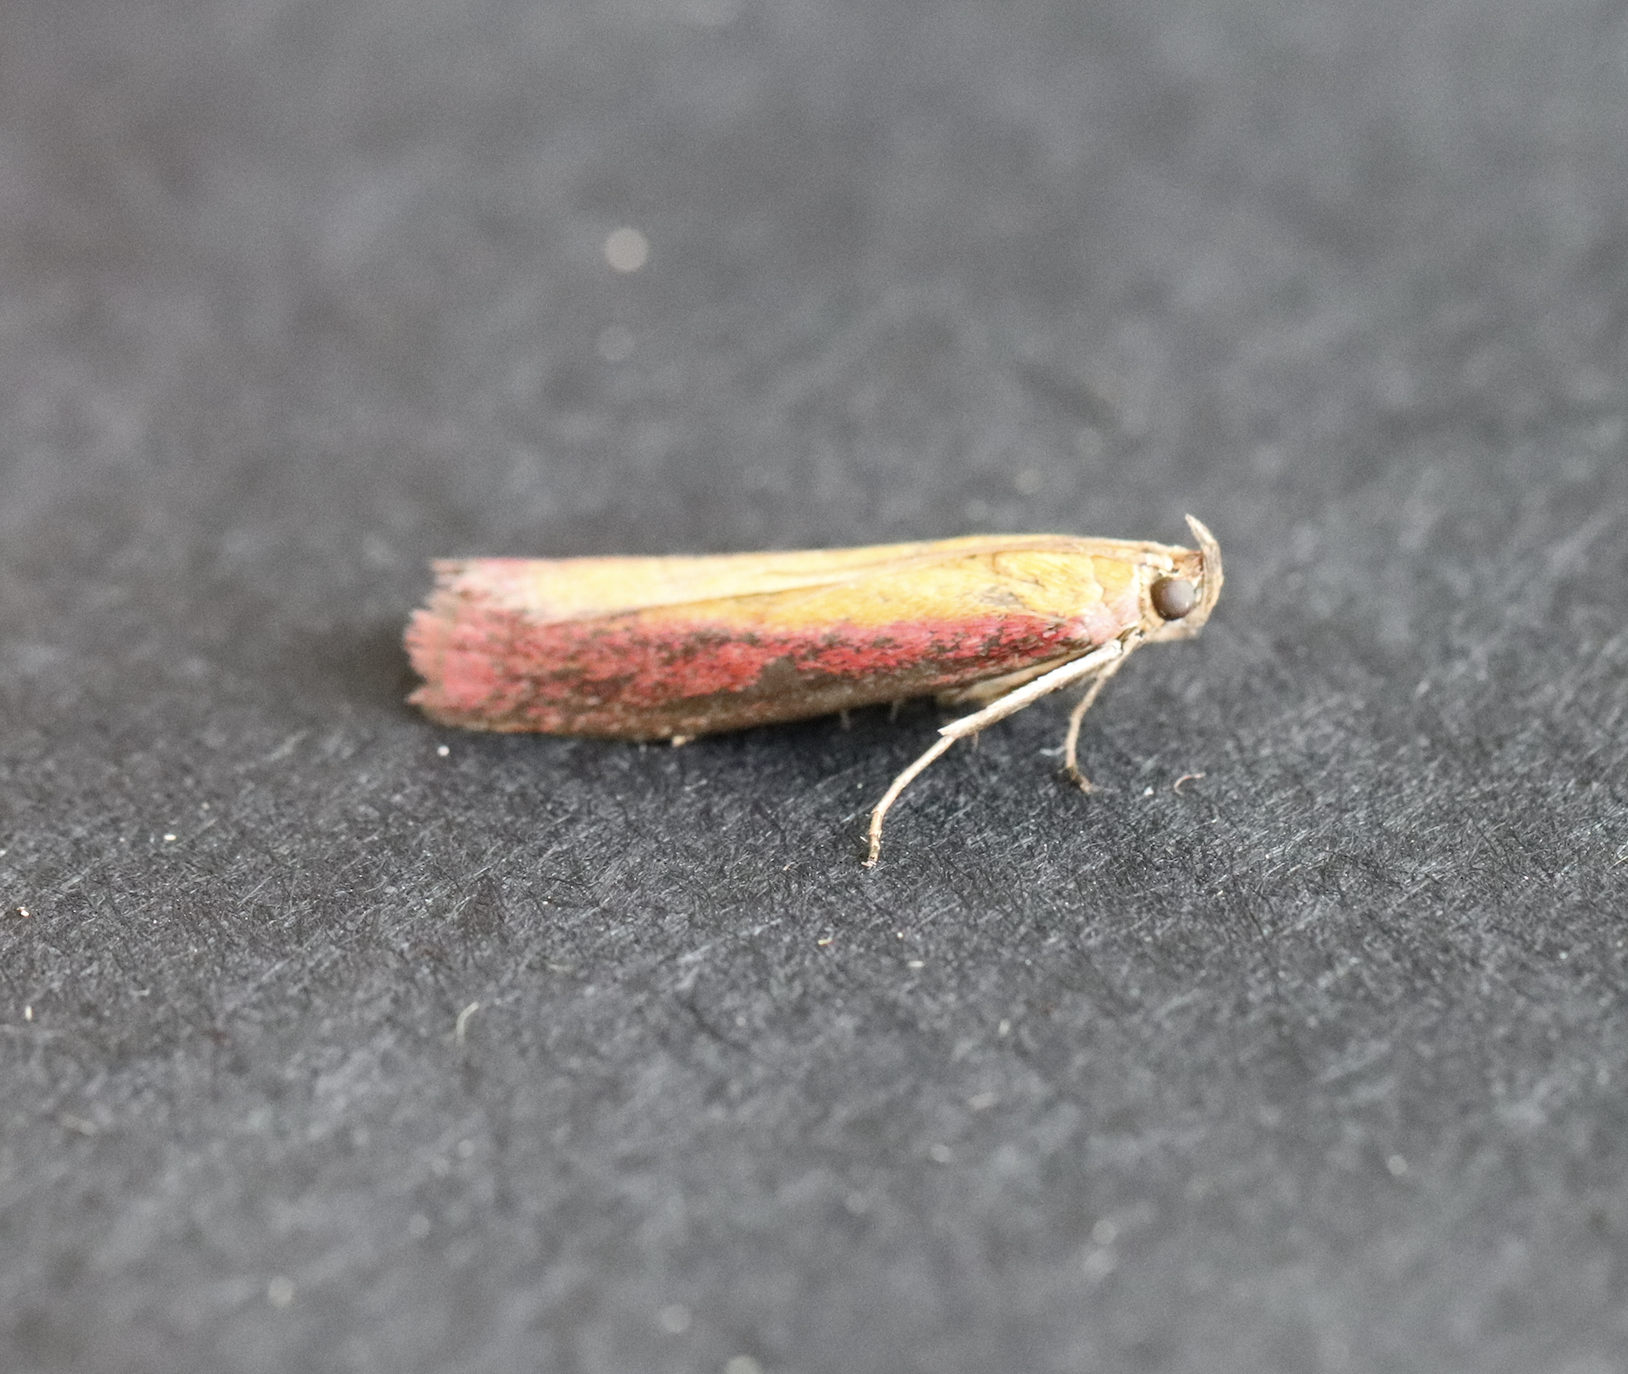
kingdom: Animalia
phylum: Arthropoda
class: Insecta
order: Lepidoptera
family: Pyralidae
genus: Oncocera
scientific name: Oncocera semirubella
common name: Rosy-striped knot-horn
